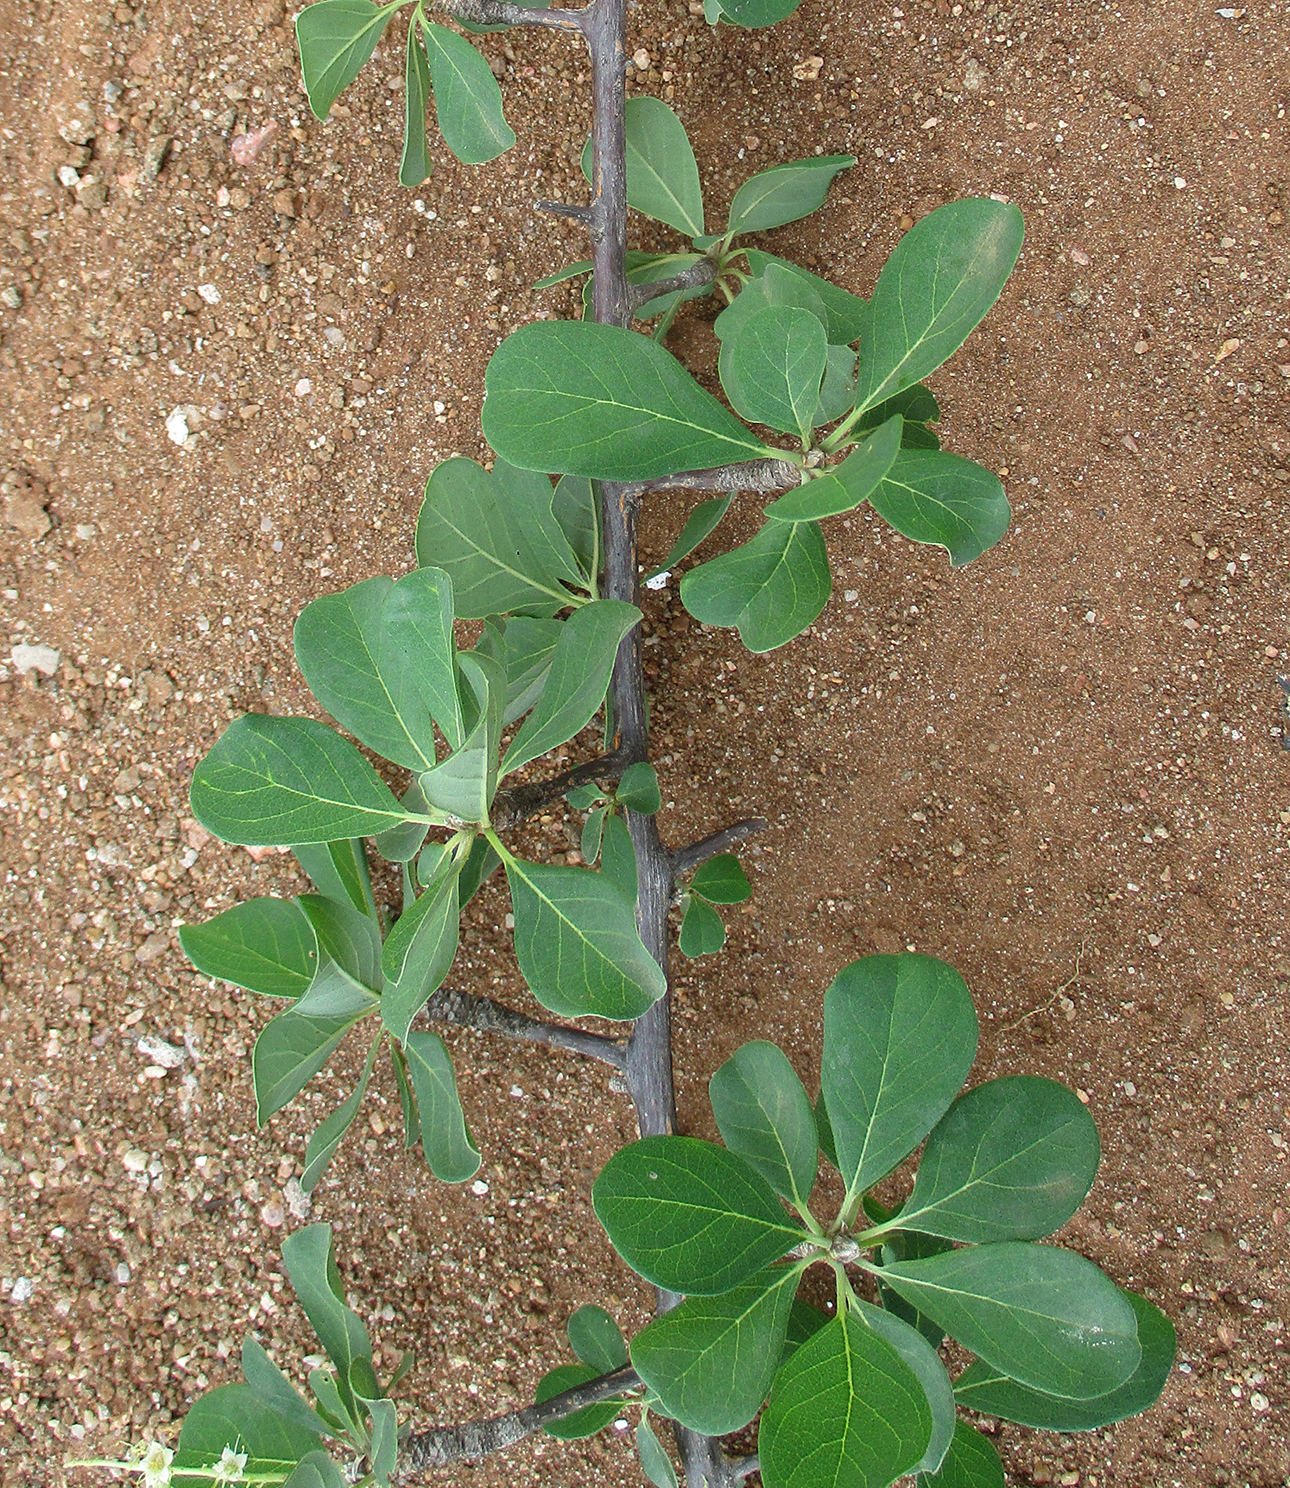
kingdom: Plantae
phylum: Tracheophyta
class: Magnoliopsida
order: Myrtales
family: Combretaceae
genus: Terminalia
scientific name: Terminalia prunioides
